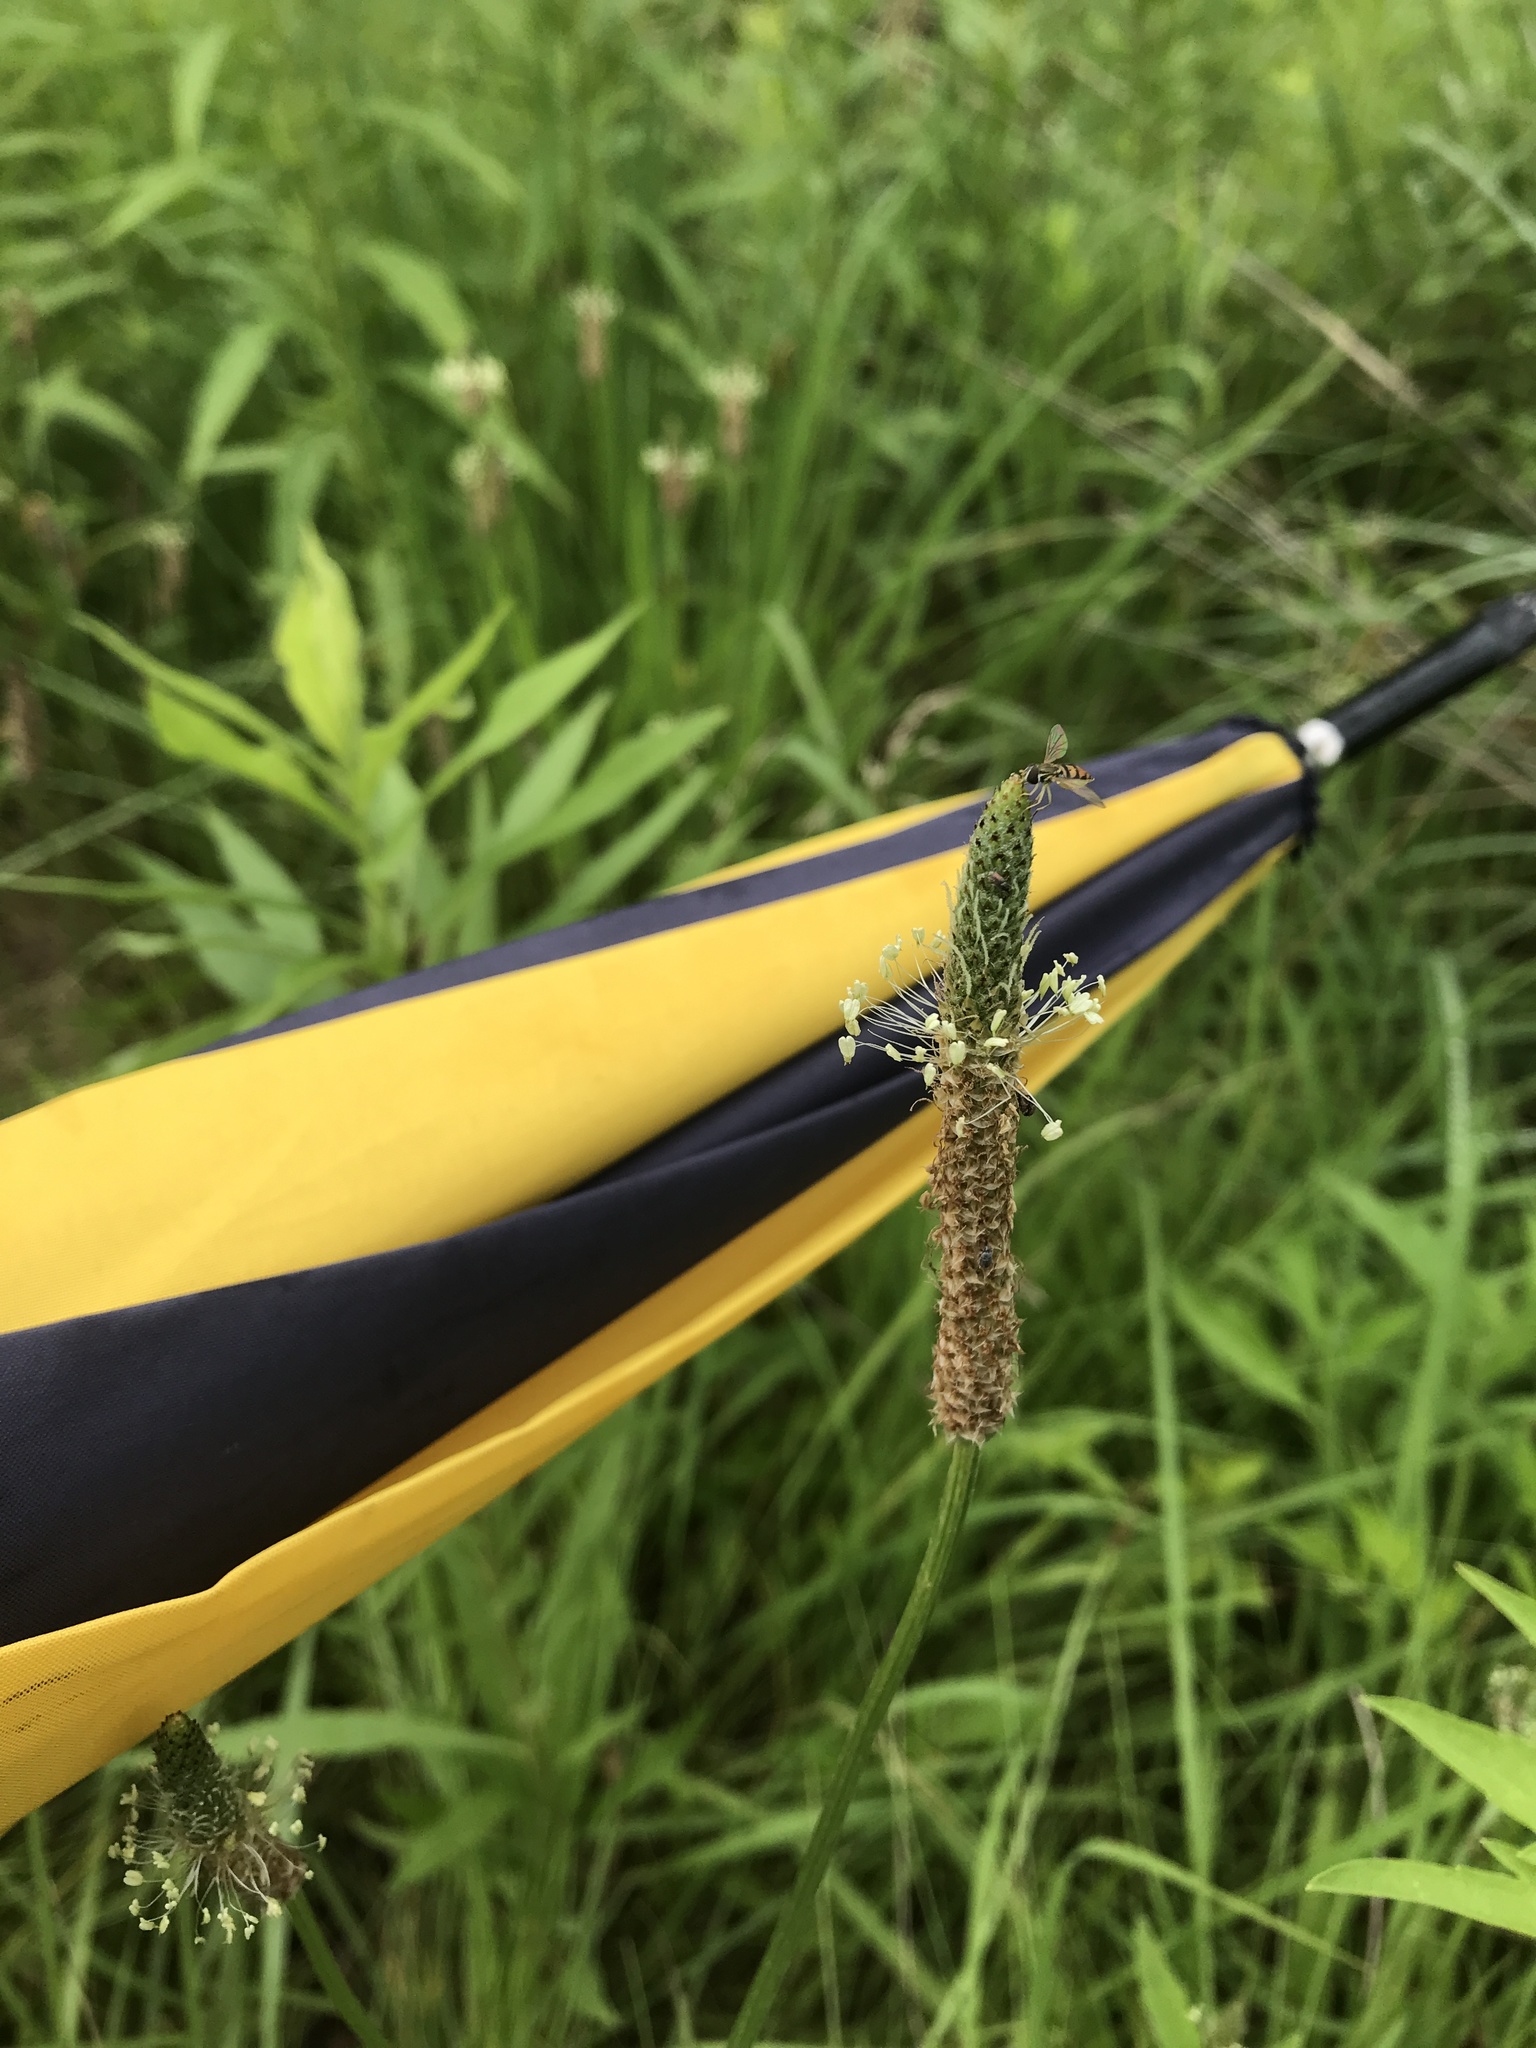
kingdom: Plantae
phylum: Tracheophyta
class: Magnoliopsida
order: Lamiales
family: Plantaginaceae
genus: Plantago
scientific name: Plantago lanceolata
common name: Ribwort plantain
